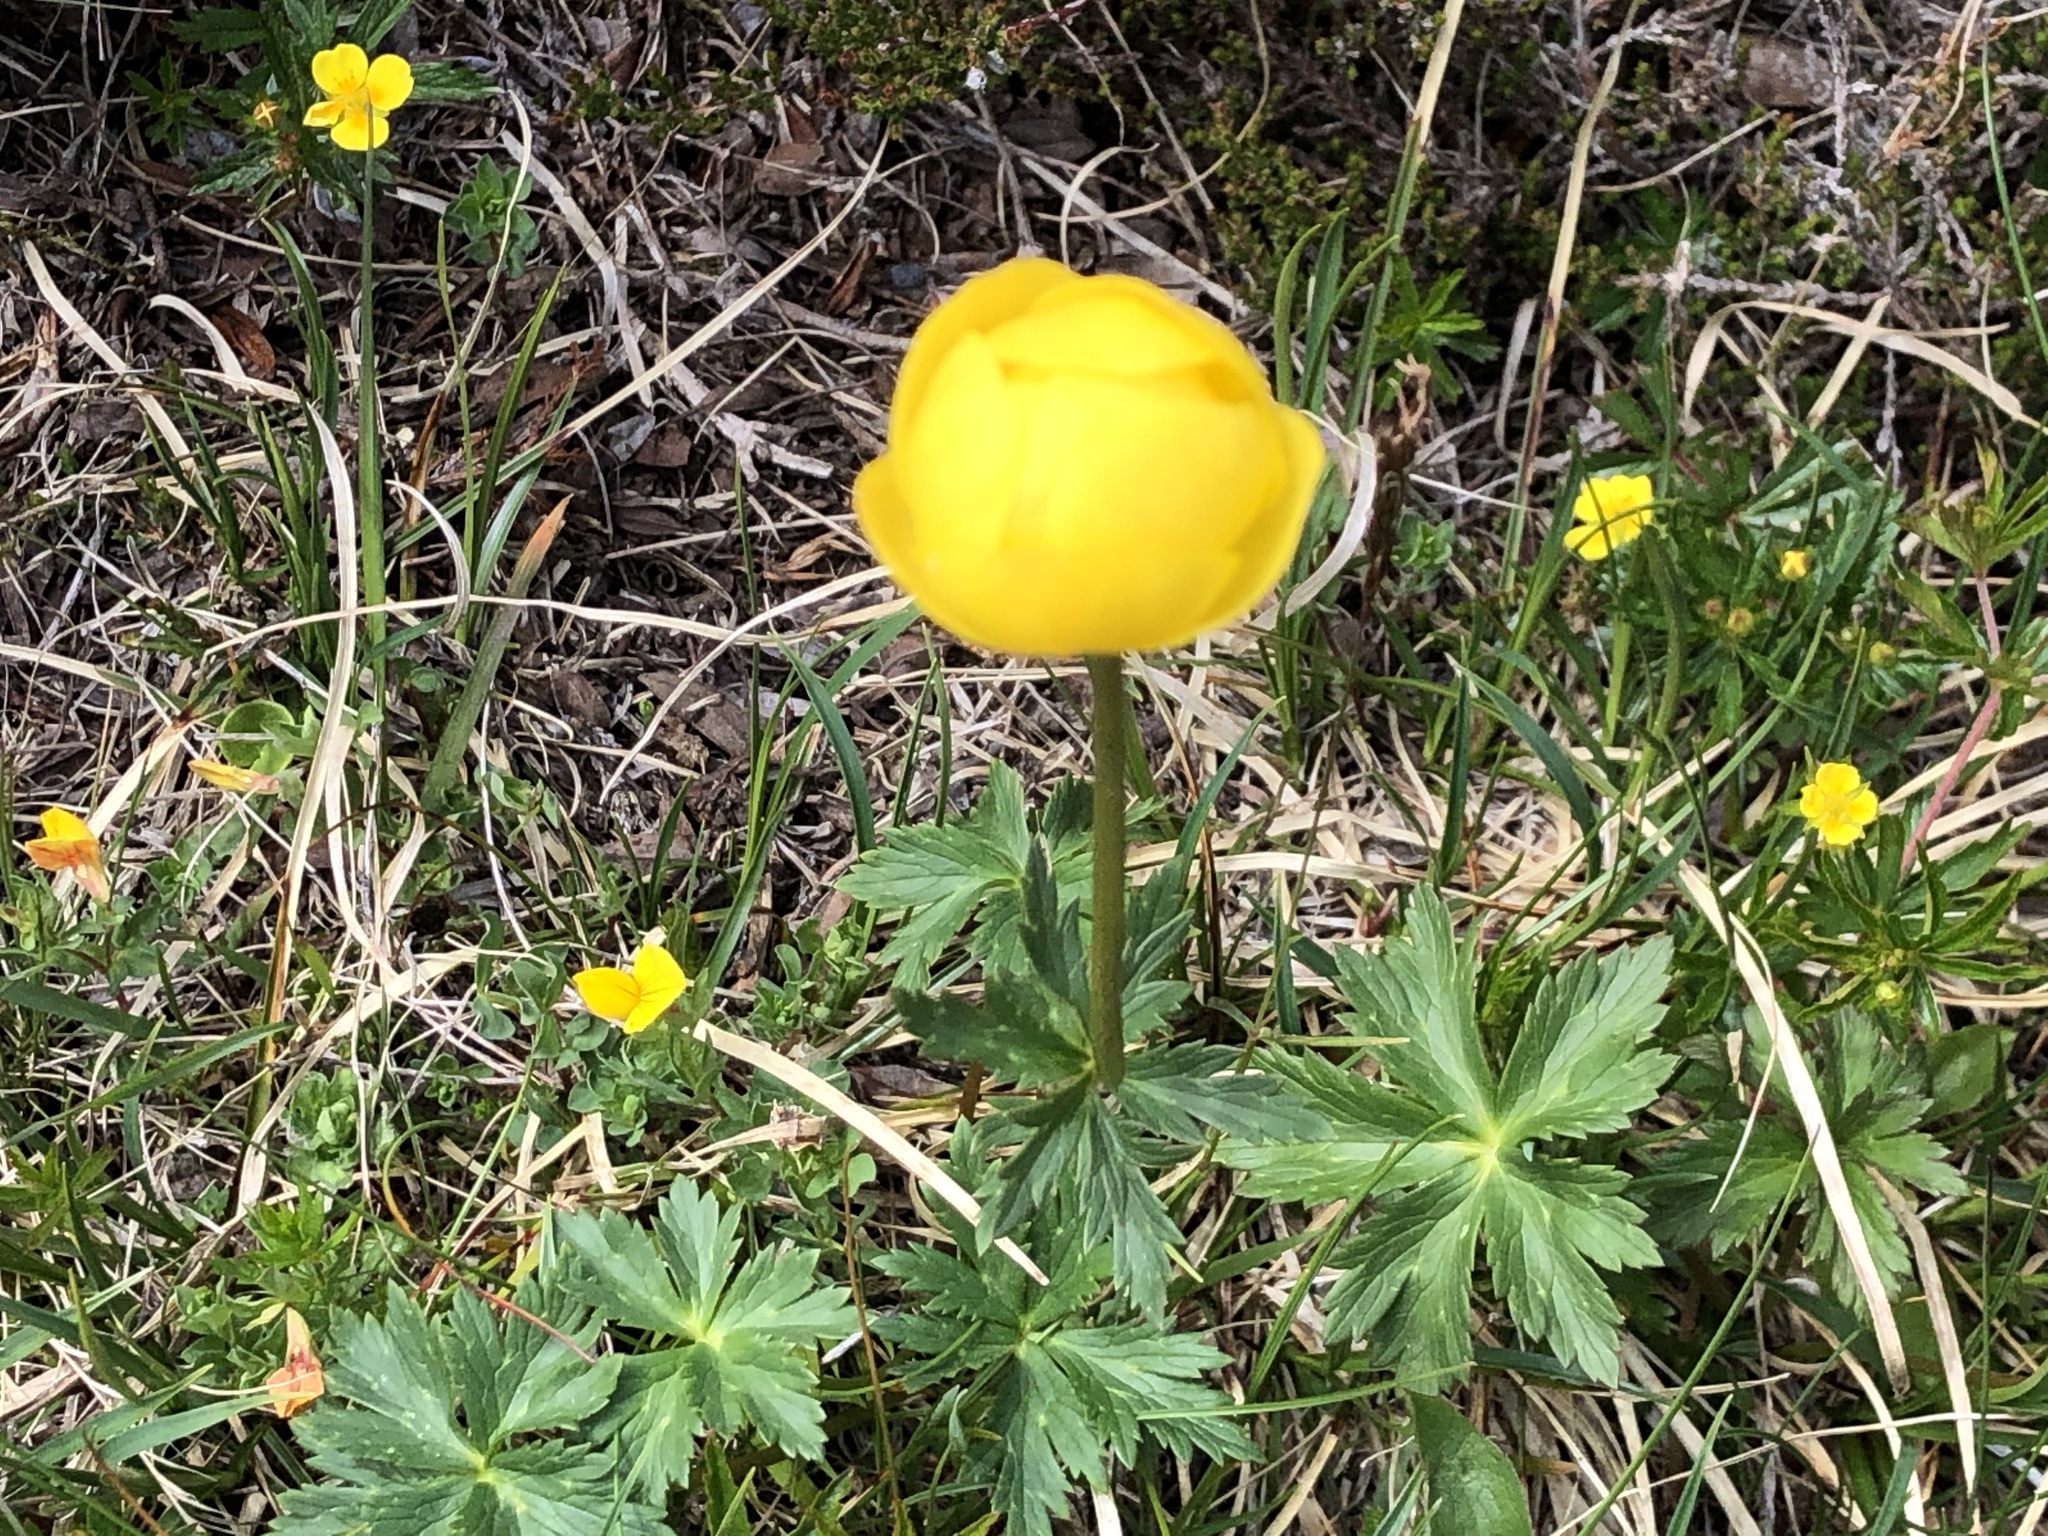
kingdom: Plantae
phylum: Tracheophyta
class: Magnoliopsida
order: Ranunculales
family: Ranunculaceae
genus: Trollius
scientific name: Trollius europaeus
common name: European globeflower
